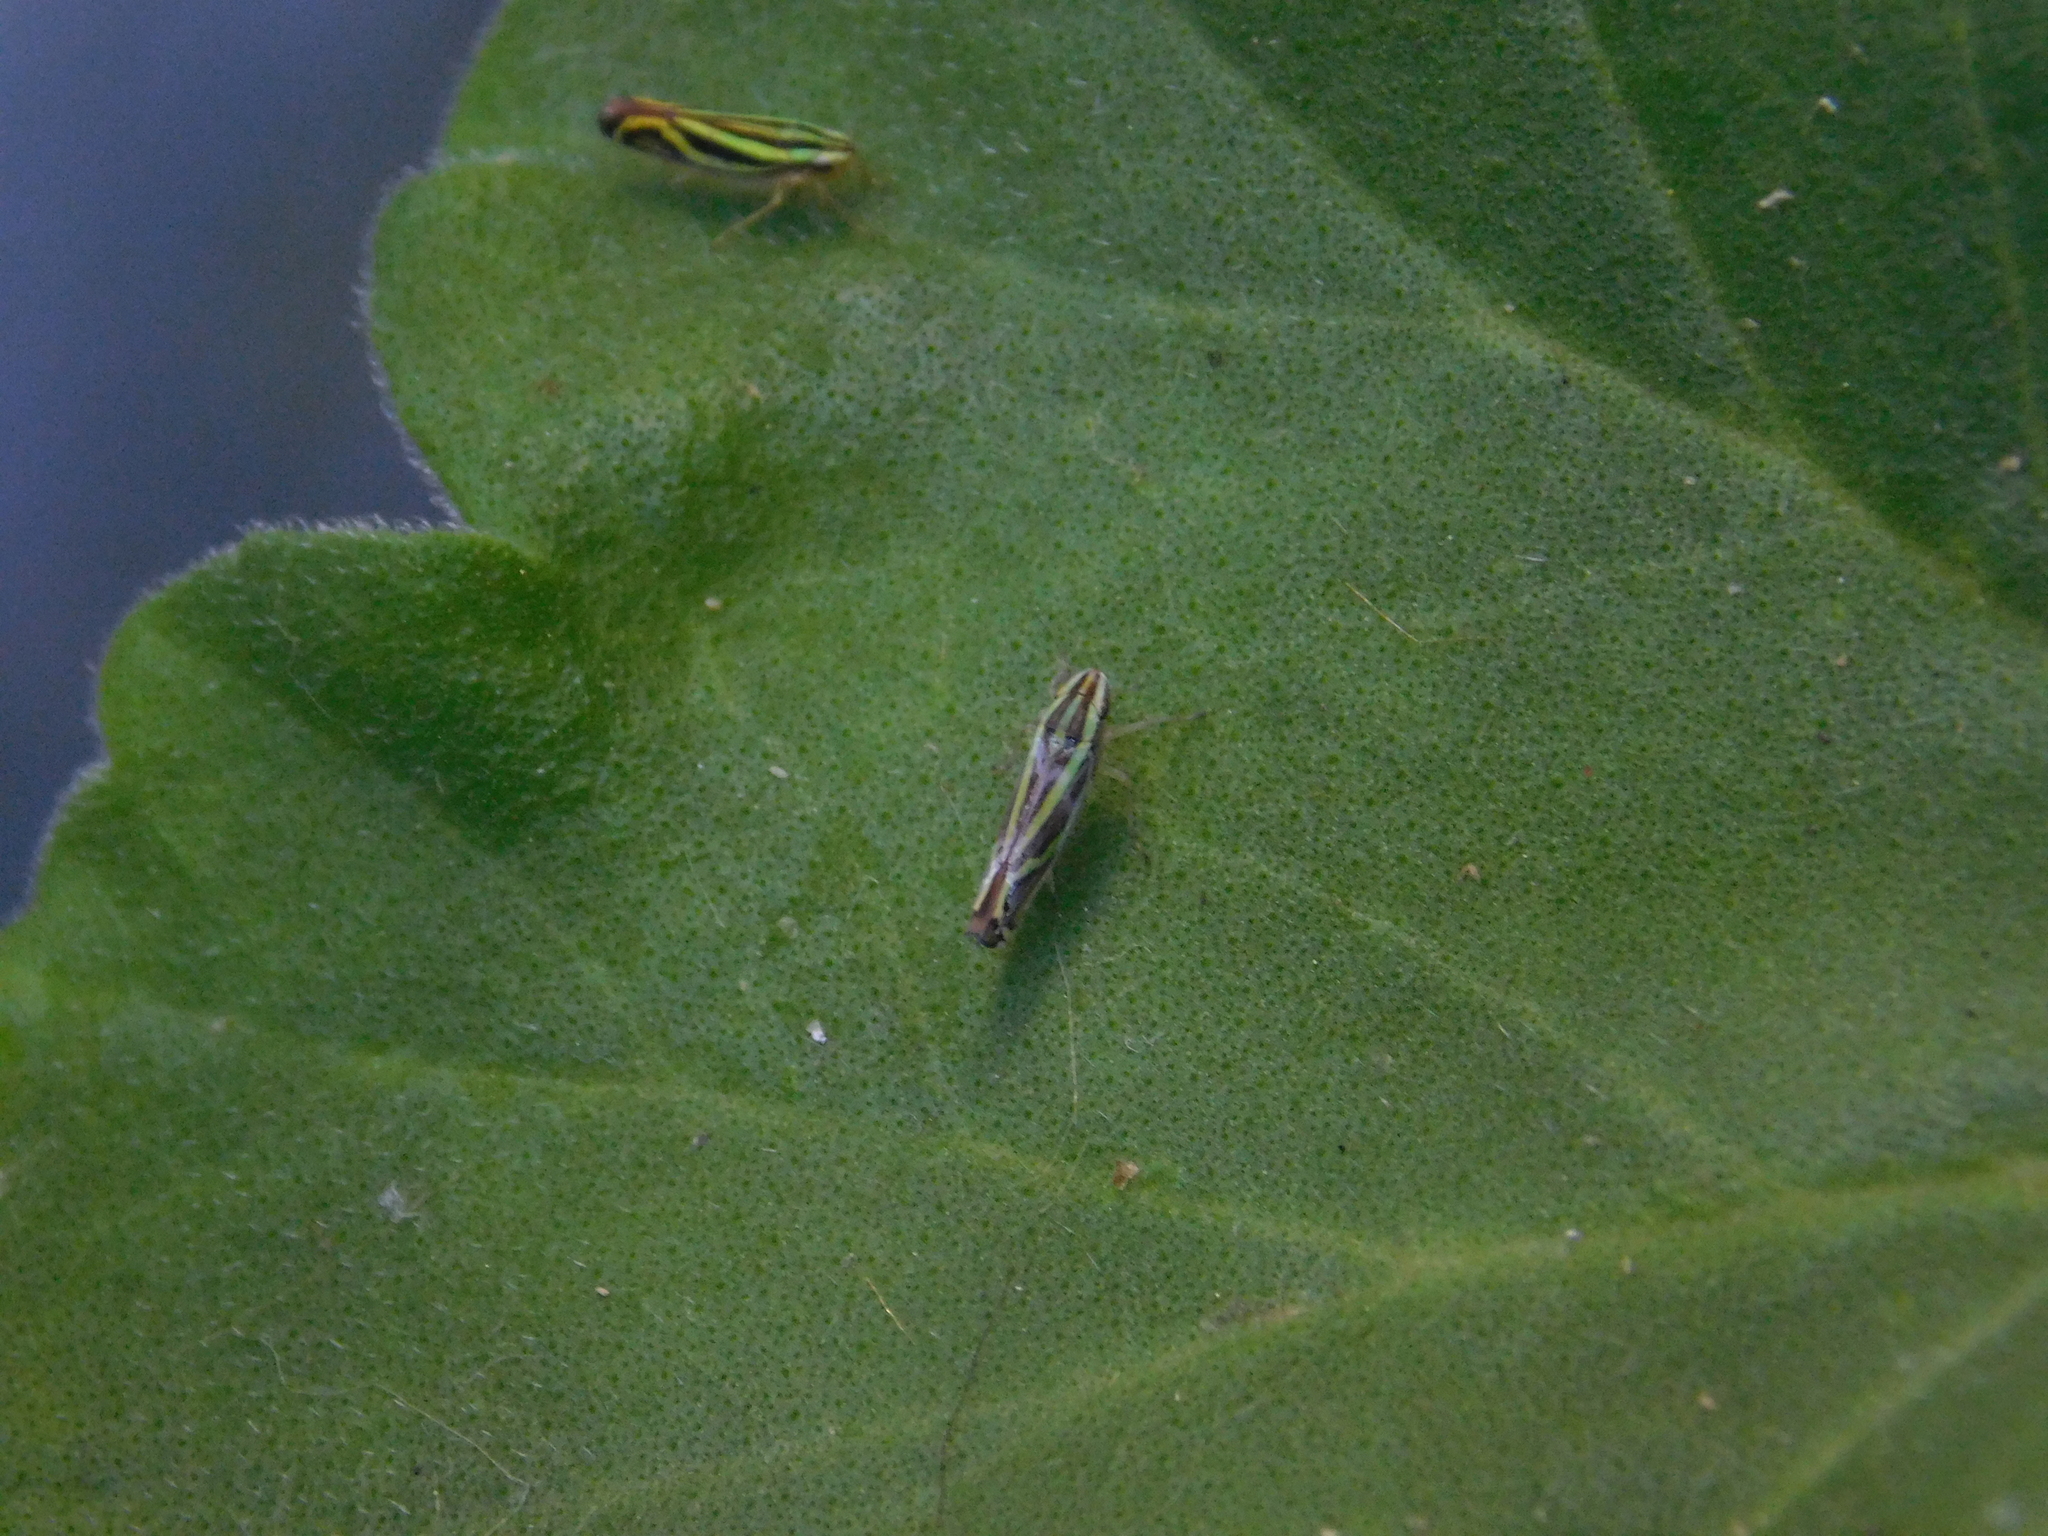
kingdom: Animalia
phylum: Arthropoda
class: Insecta
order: Hemiptera
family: Cicadellidae
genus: Sibovia
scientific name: Sibovia sagata
